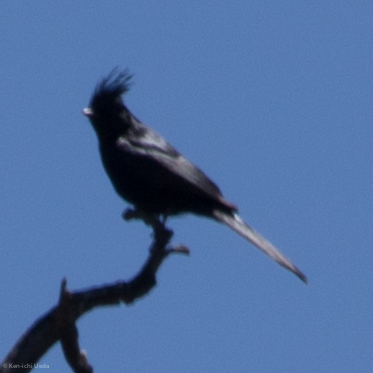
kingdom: Animalia
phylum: Chordata
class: Aves
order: Passeriformes
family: Ptilogonatidae
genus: Phainopepla
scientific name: Phainopepla nitens
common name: Phainopepla
